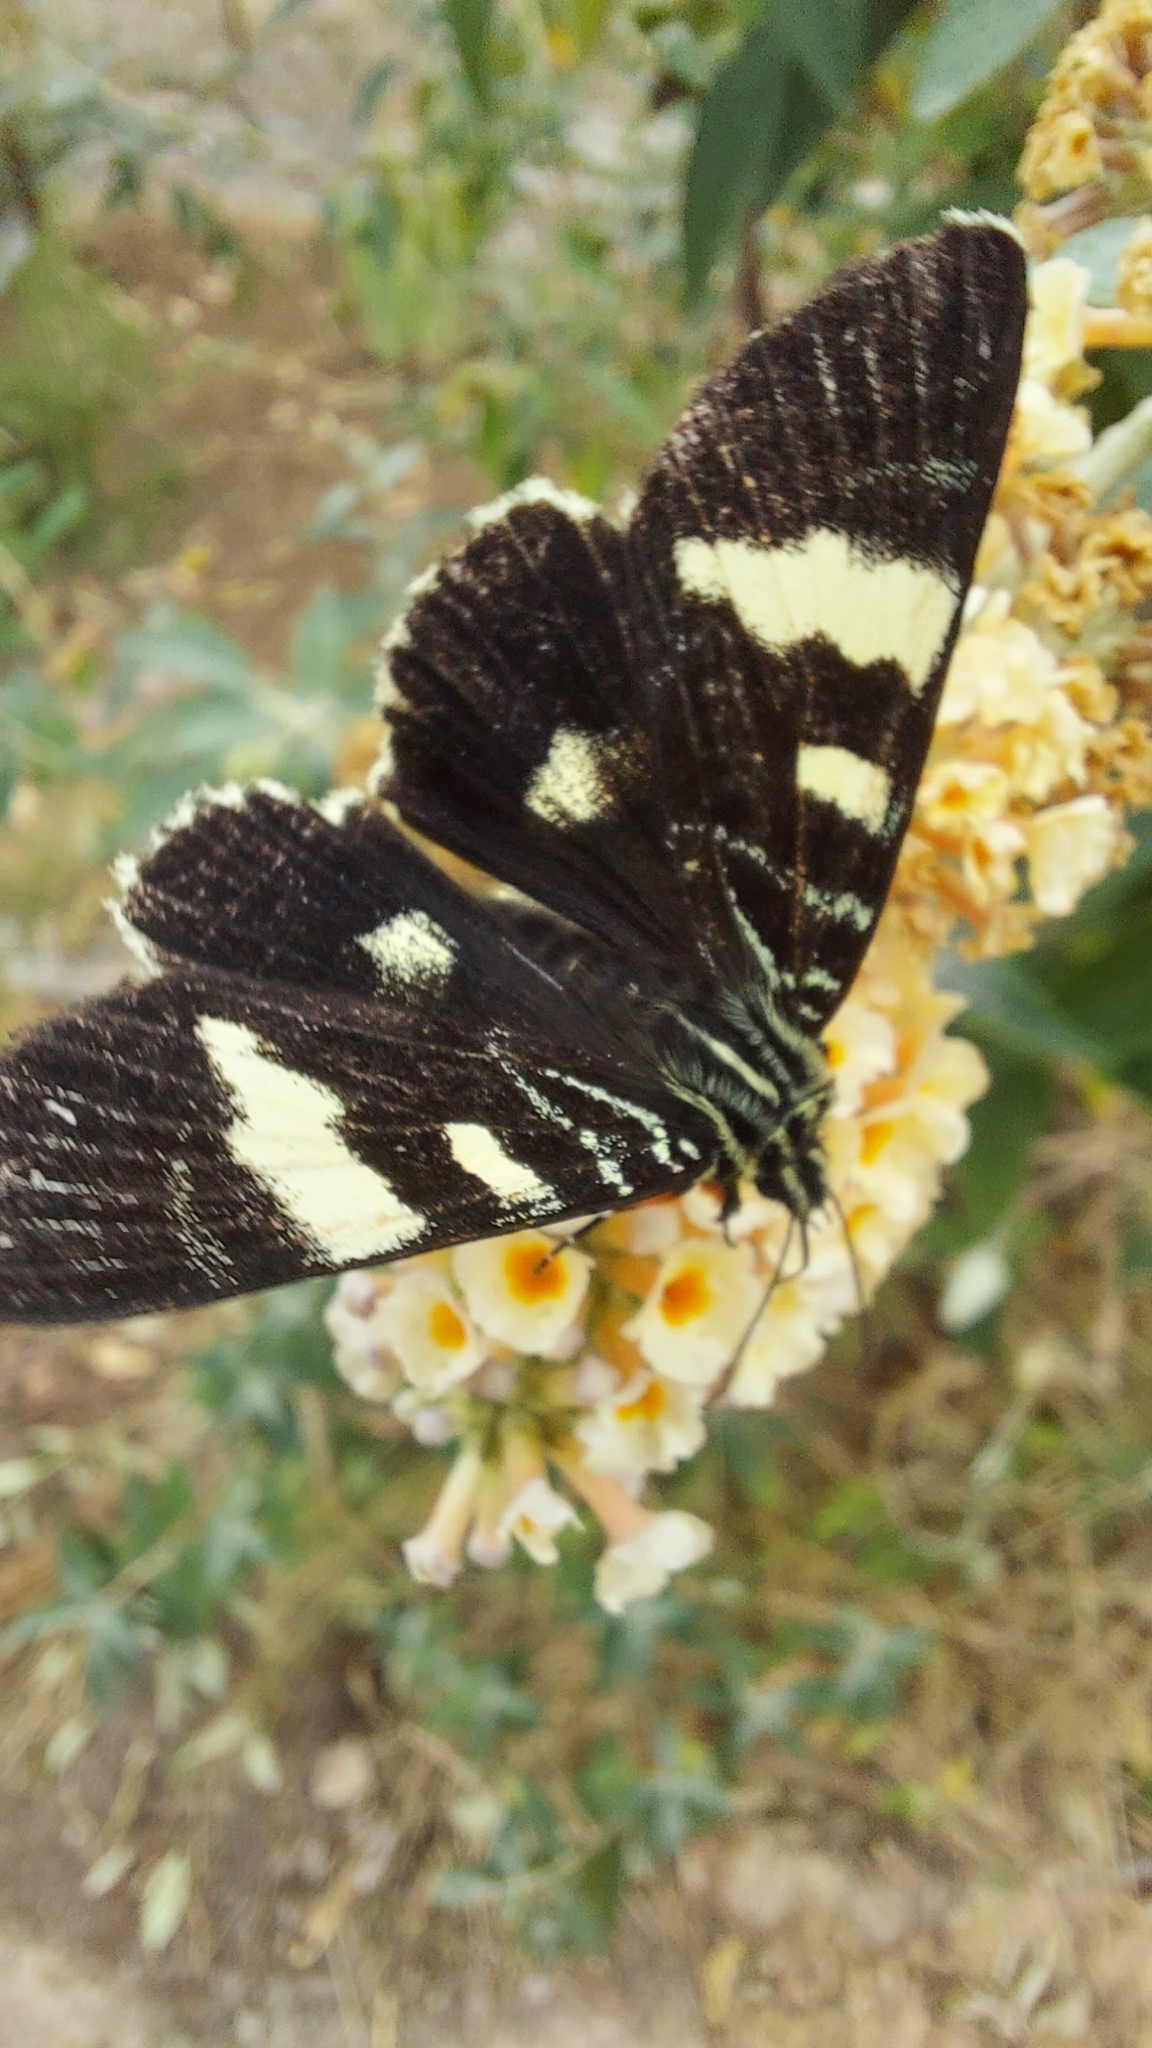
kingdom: Animalia
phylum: Arthropoda
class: Insecta
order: Lepidoptera
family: Noctuidae
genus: Phalaenoides
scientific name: Phalaenoides glycinae
